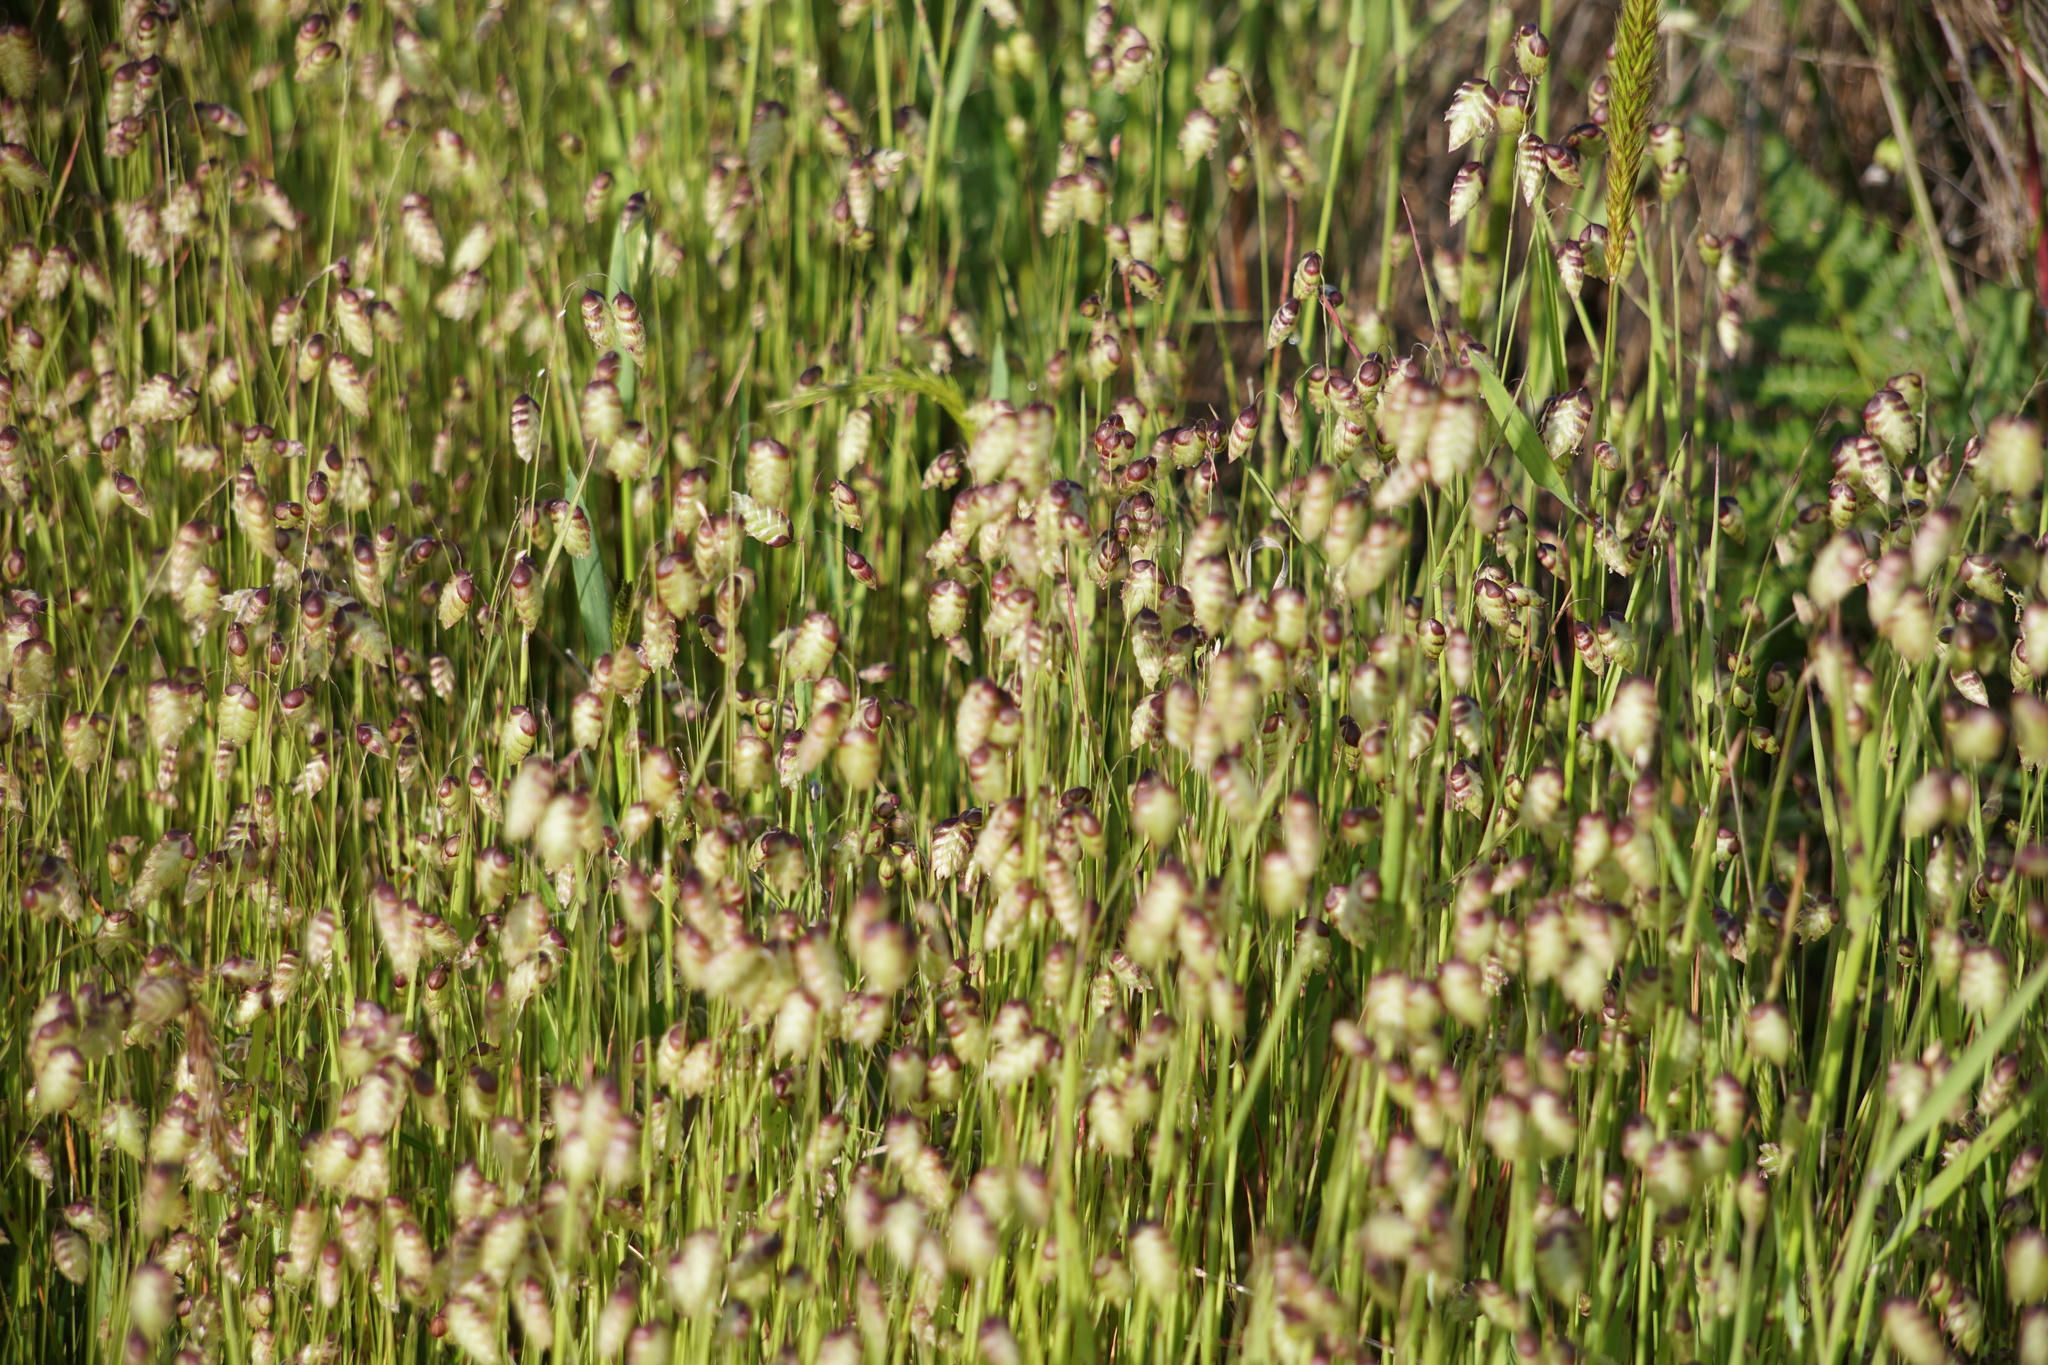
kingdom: Plantae
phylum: Tracheophyta
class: Liliopsida
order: Poales
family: Poaceae
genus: Briza
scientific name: Briza maxima
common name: Big quakinggrass
